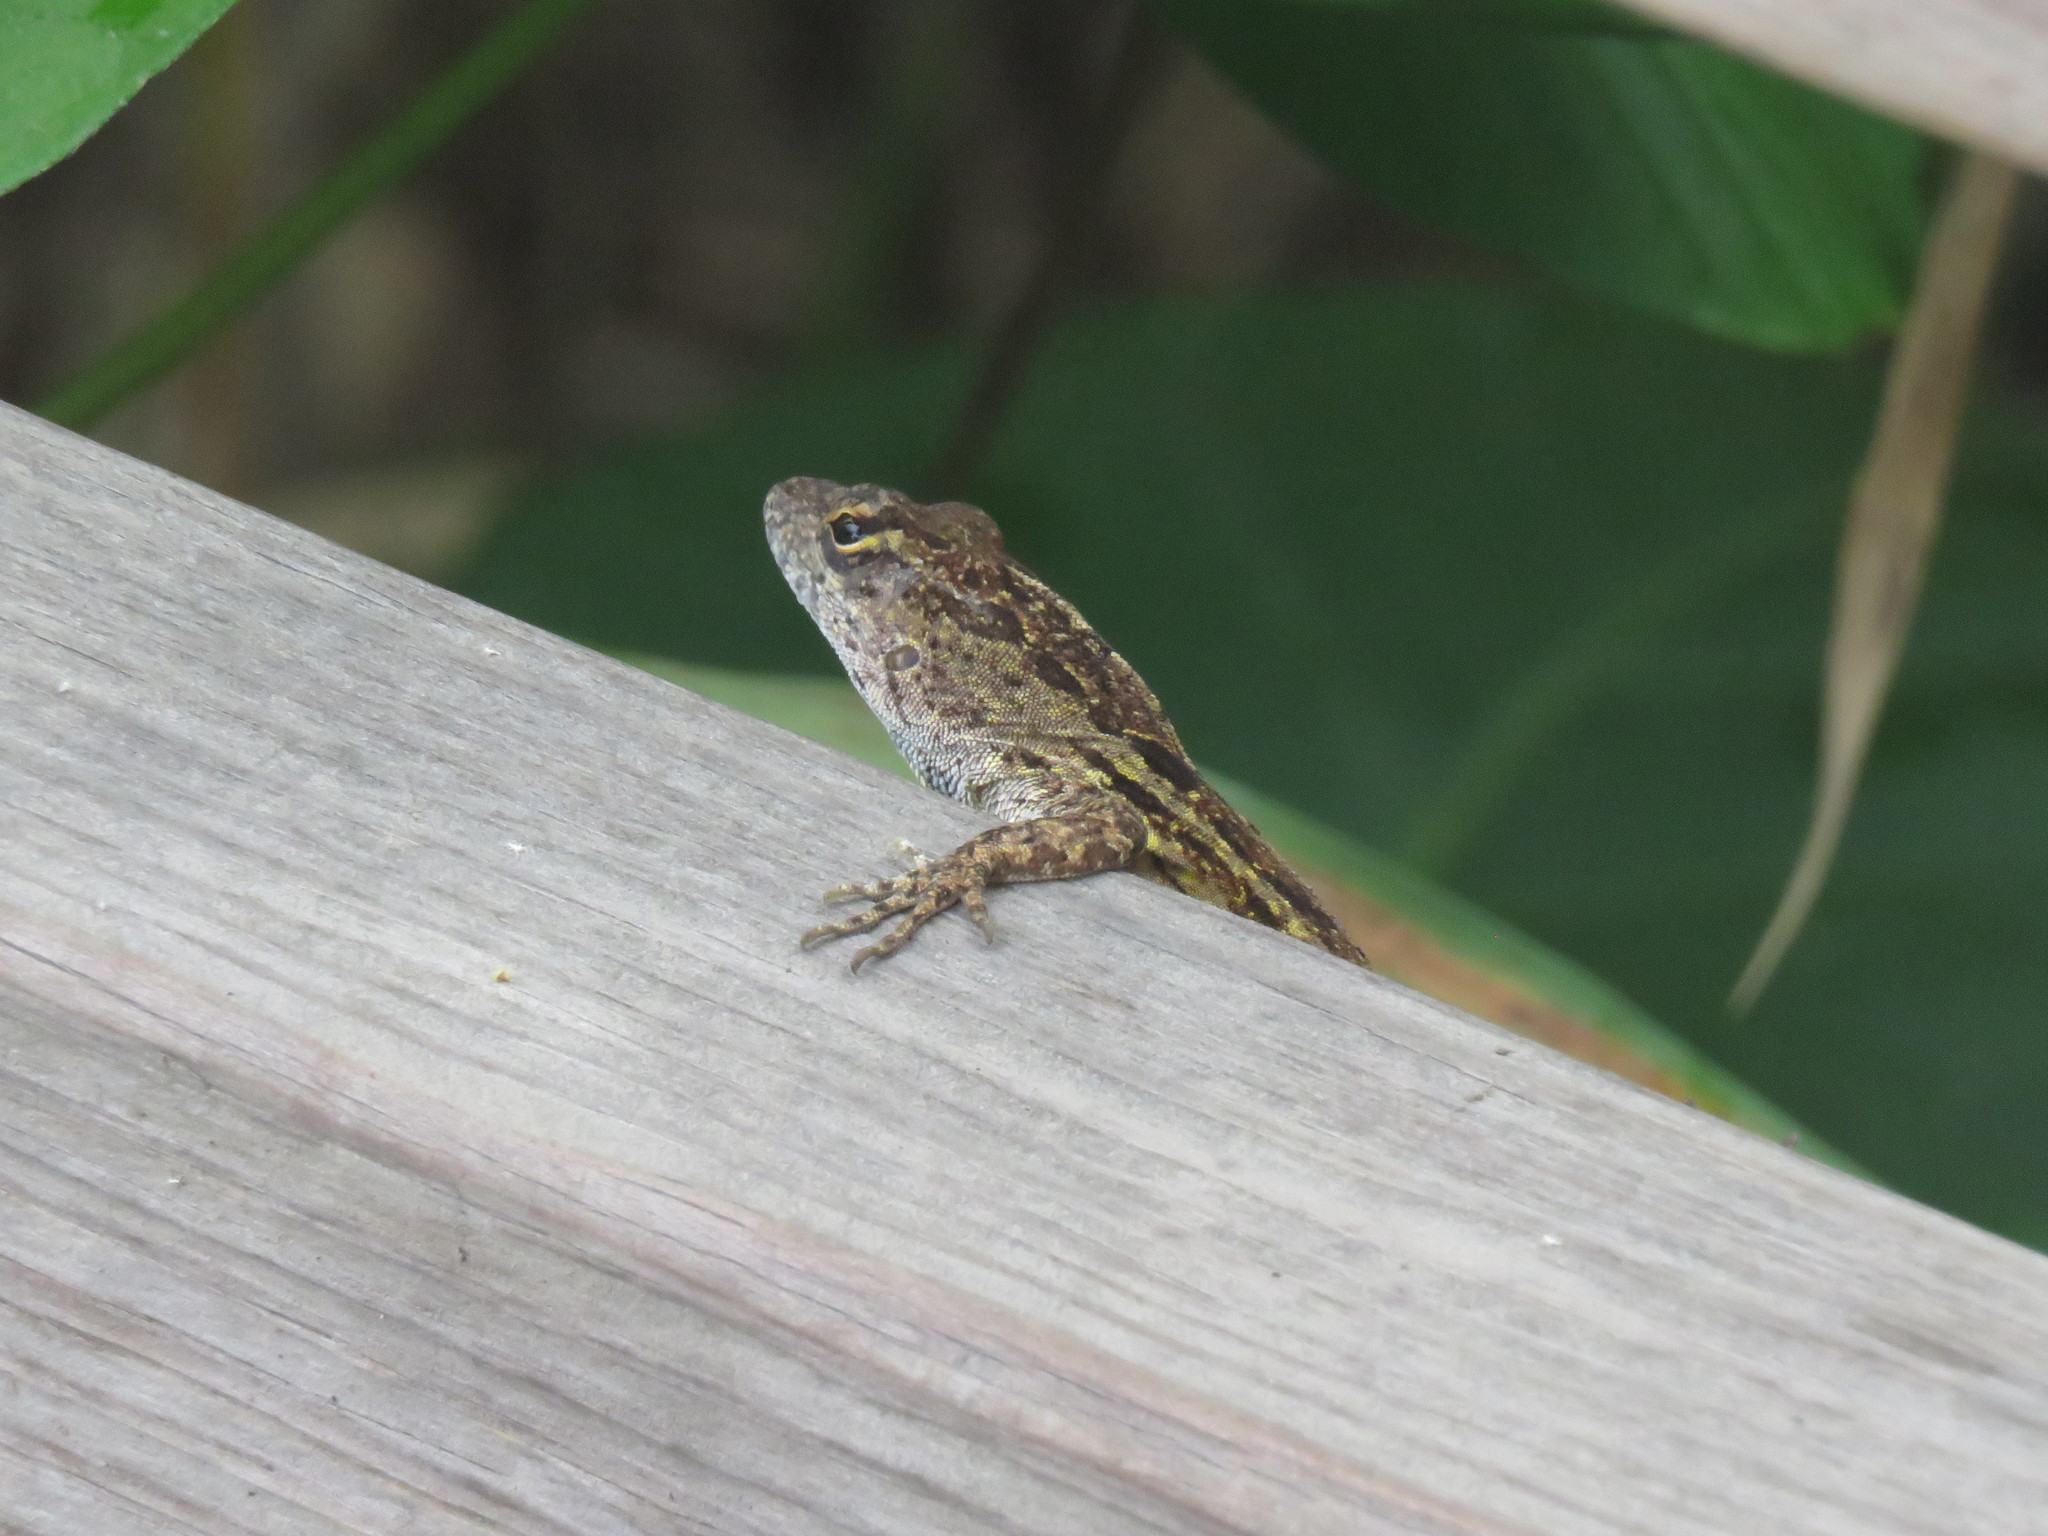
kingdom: Animalia
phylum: Chordata
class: Squamata
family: Dactyloidae
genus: Anolis
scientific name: Anolis sagrei
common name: Brown anole
